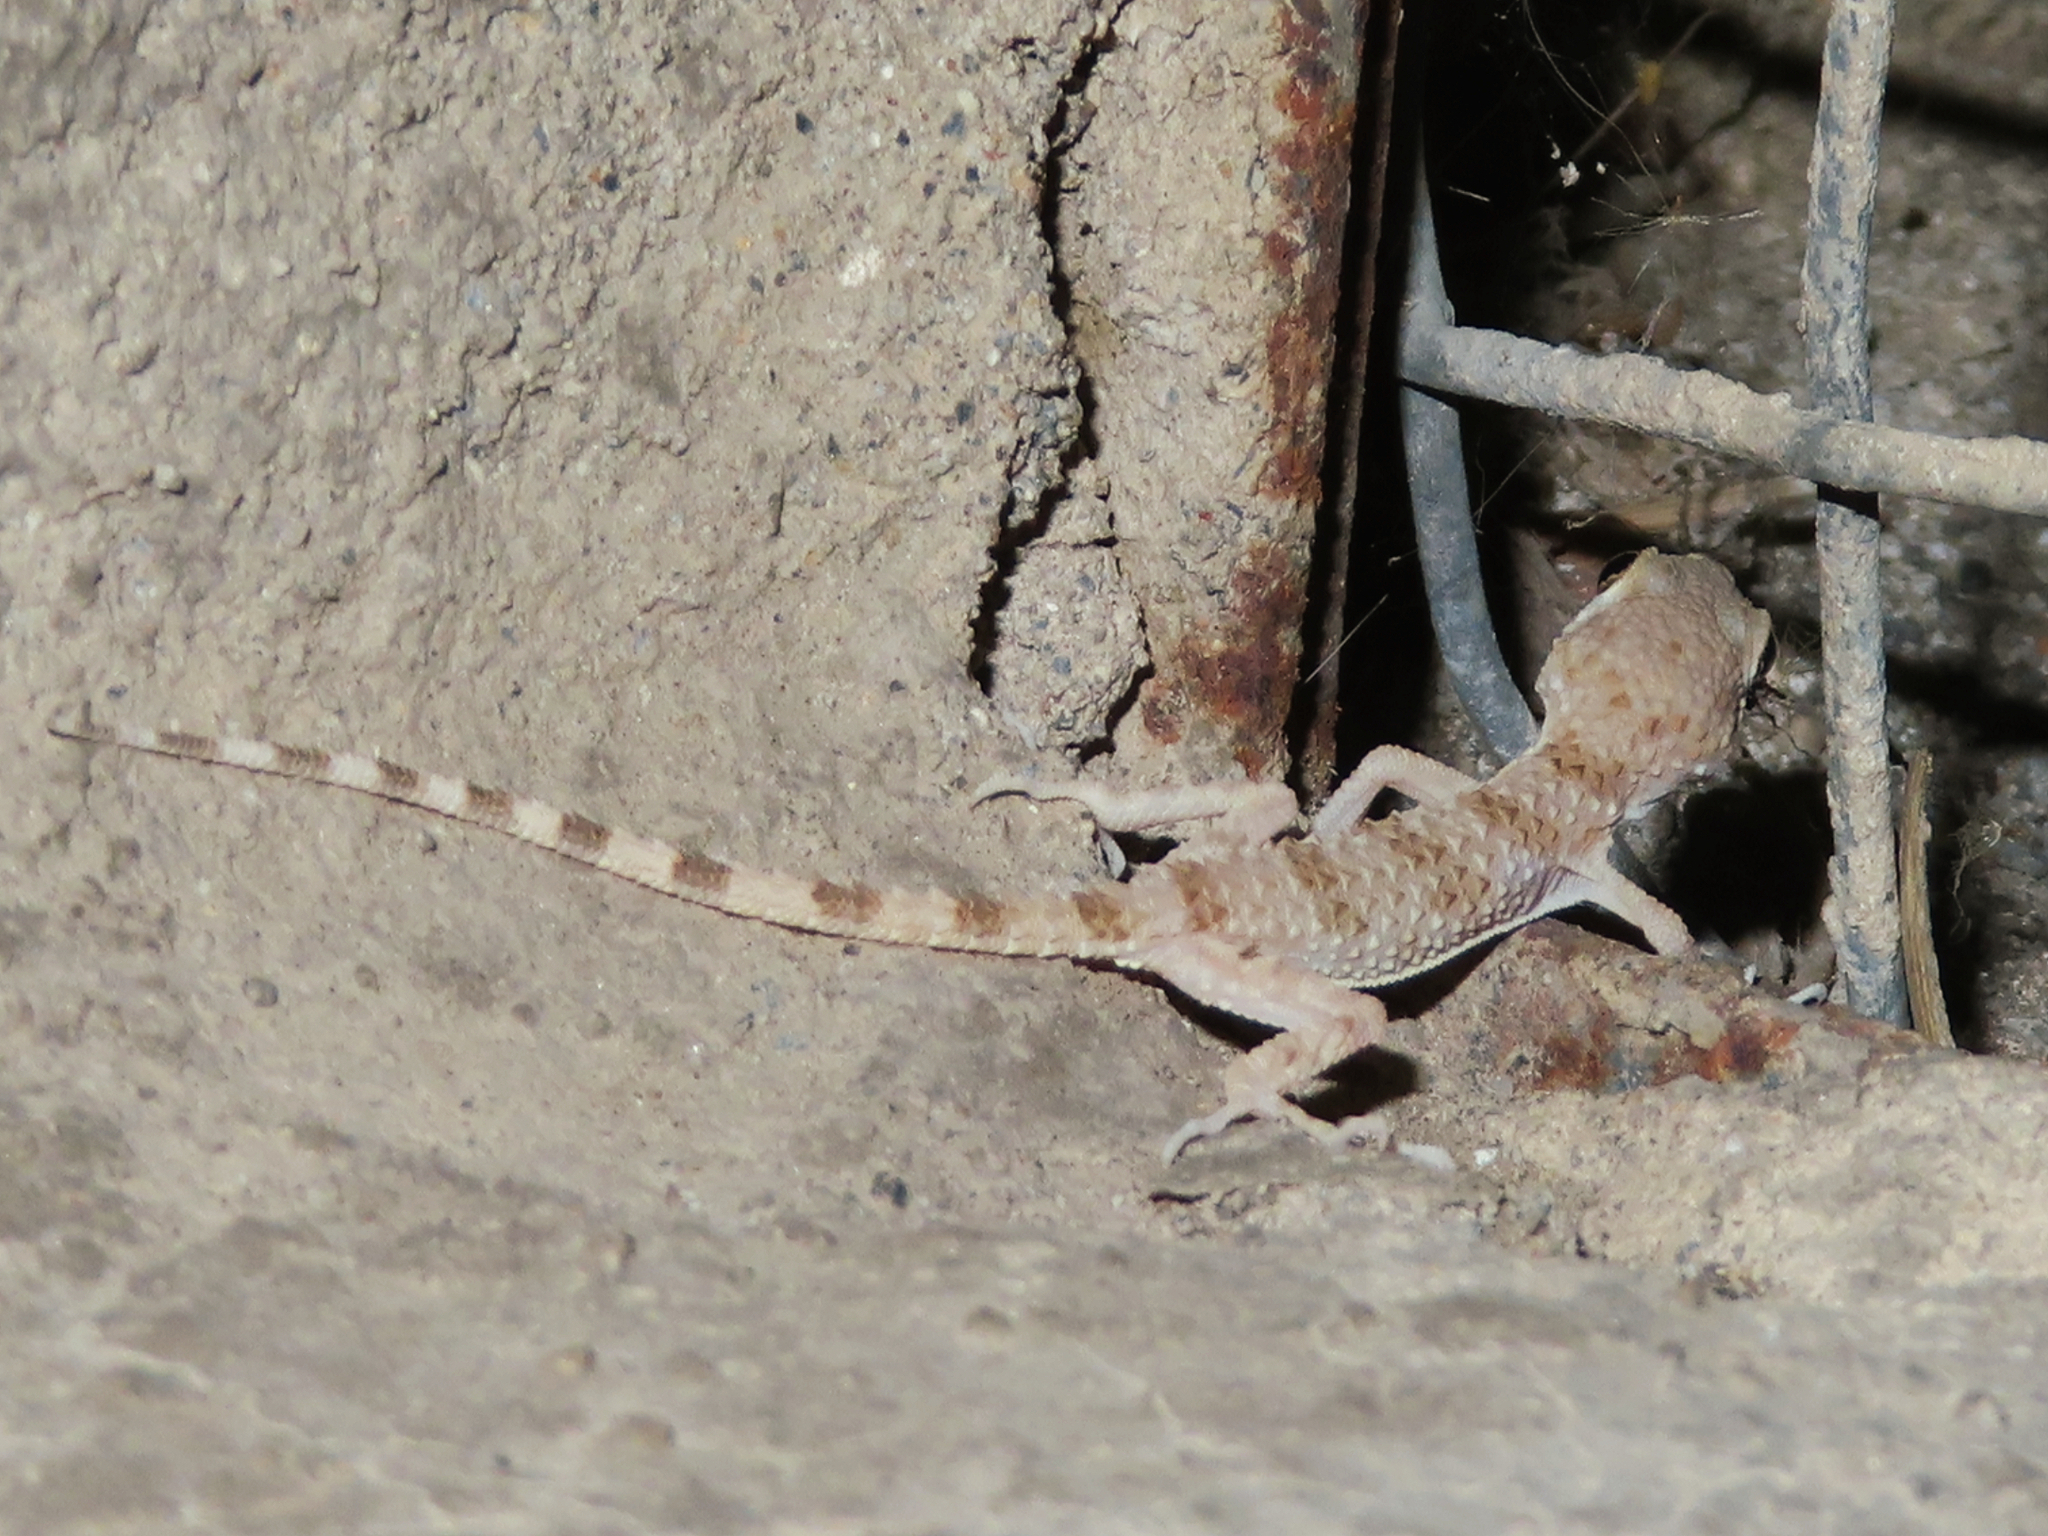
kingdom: Animalia
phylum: Chordata
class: Squamata
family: Gekkonidae
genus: Tenuidactylus
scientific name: Tenuidactylus caspius
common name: Caspian bent-toed gecko
